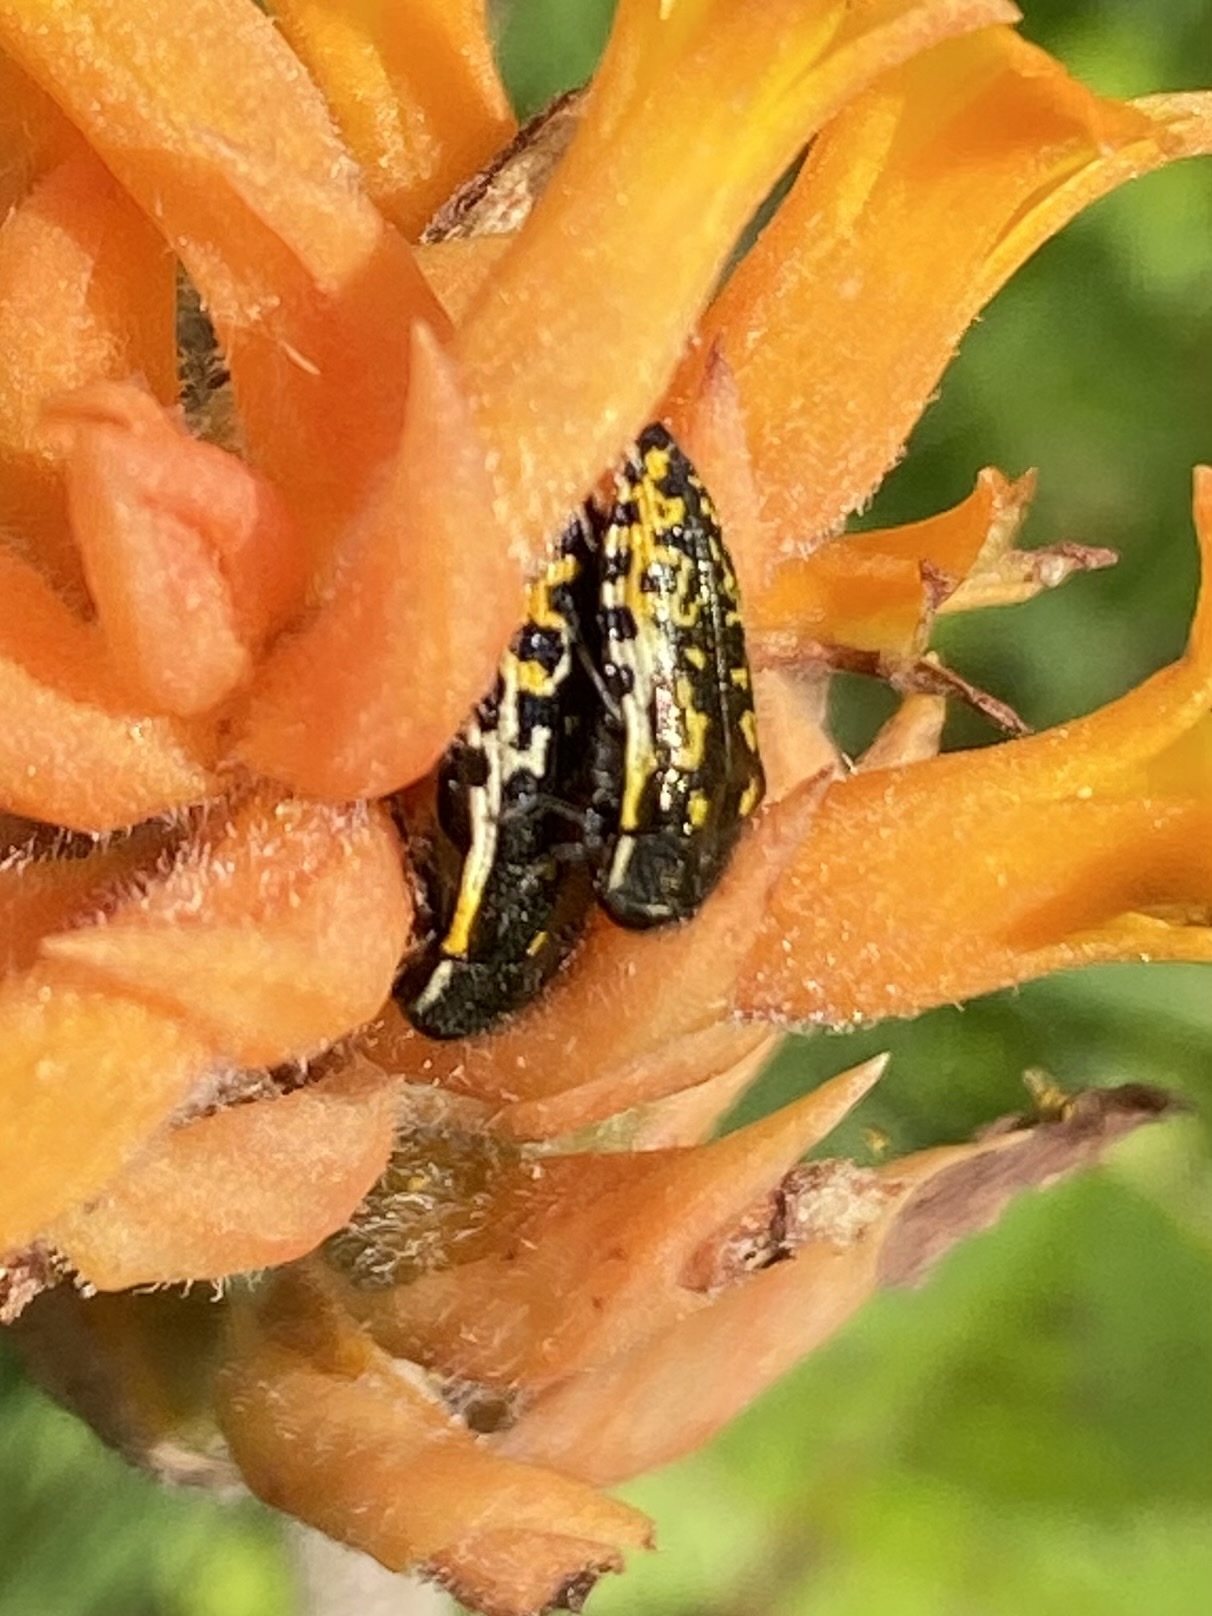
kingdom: Animalia
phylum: Arthropoda
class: Insecta
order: Coleoptera
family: Buprestidae
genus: Acmaeodera
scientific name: Acmaeodera scalaris
